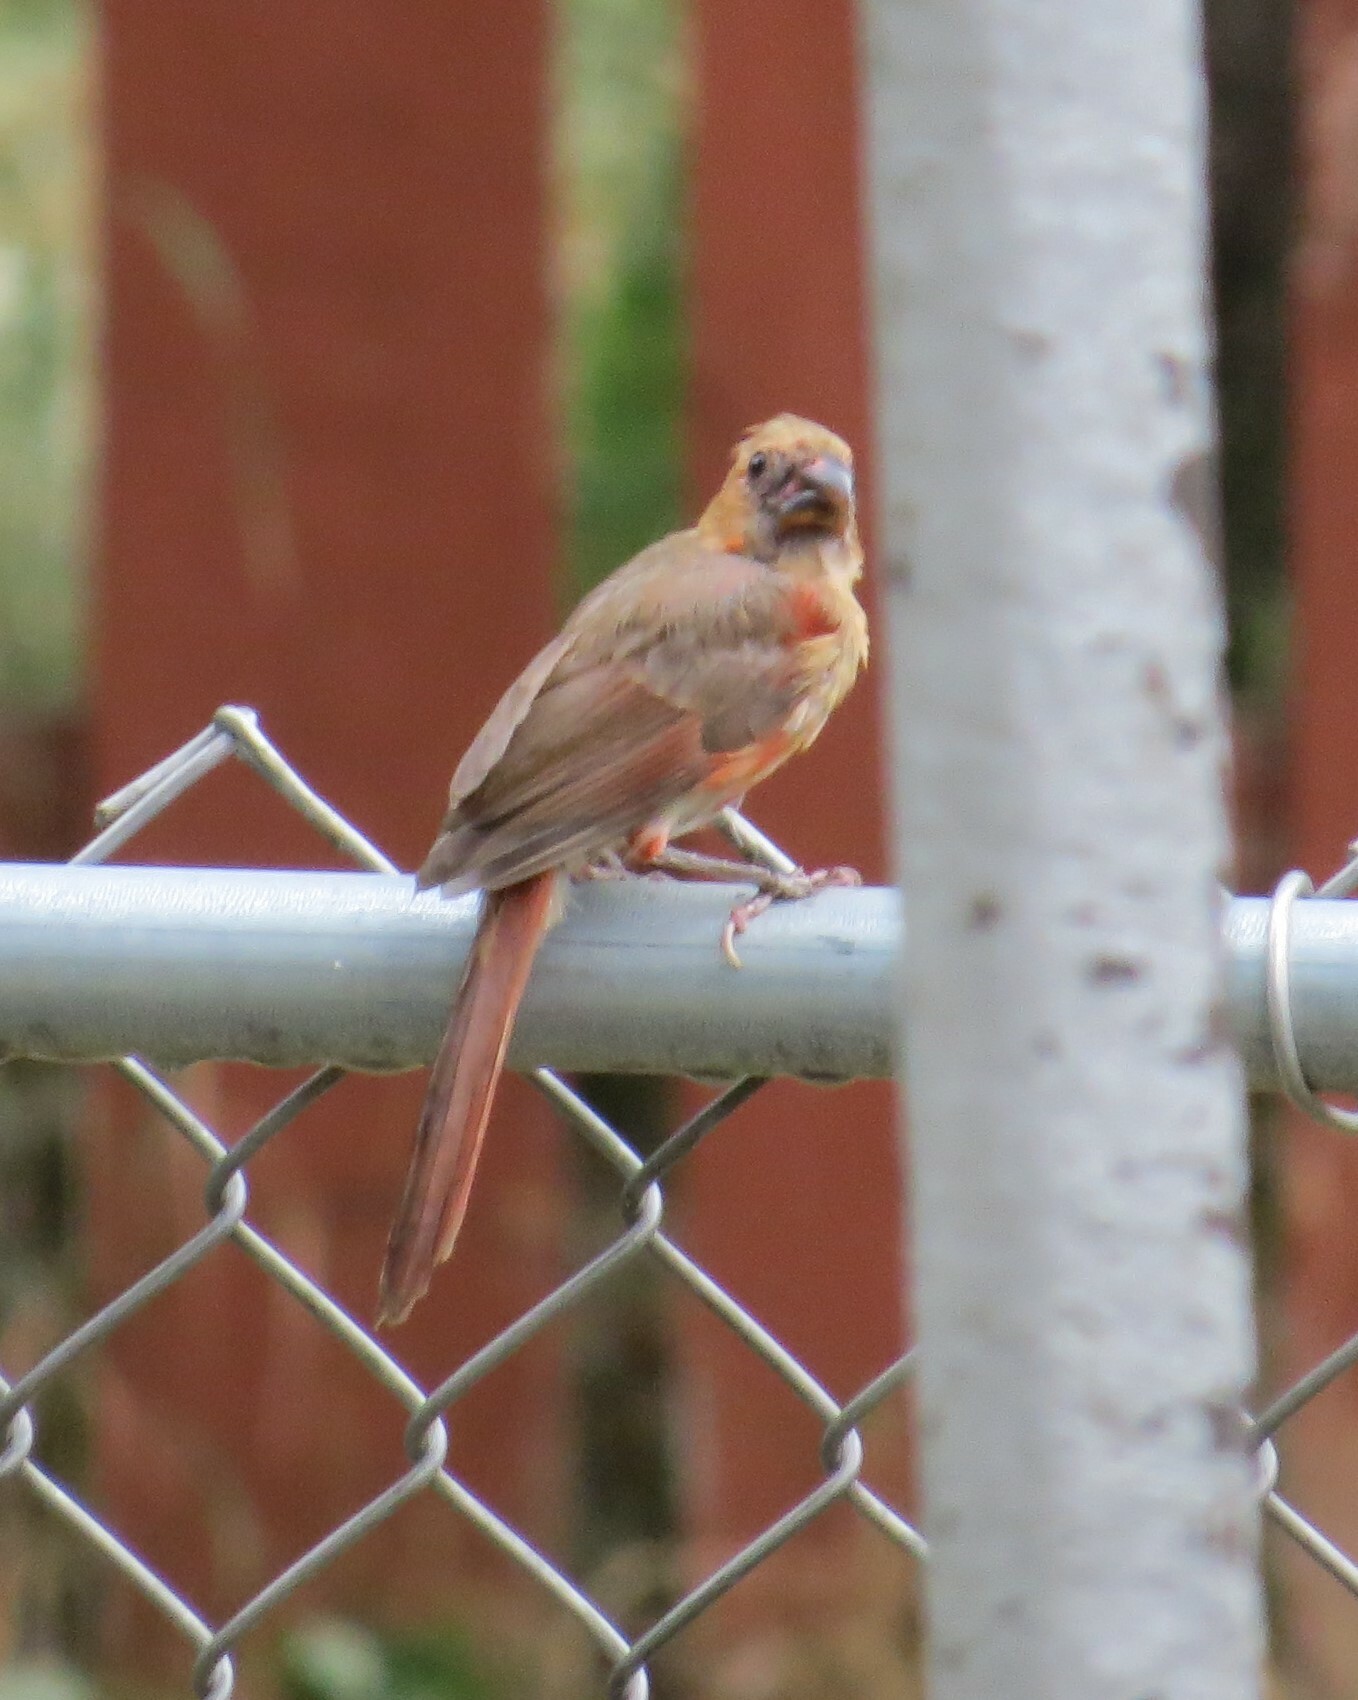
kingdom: Animalia
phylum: Chordata
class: Aves
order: Passeriformes
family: Cardinalidae
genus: Cardinalis
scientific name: Cardinalis cardinalis
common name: Northern cardinal
